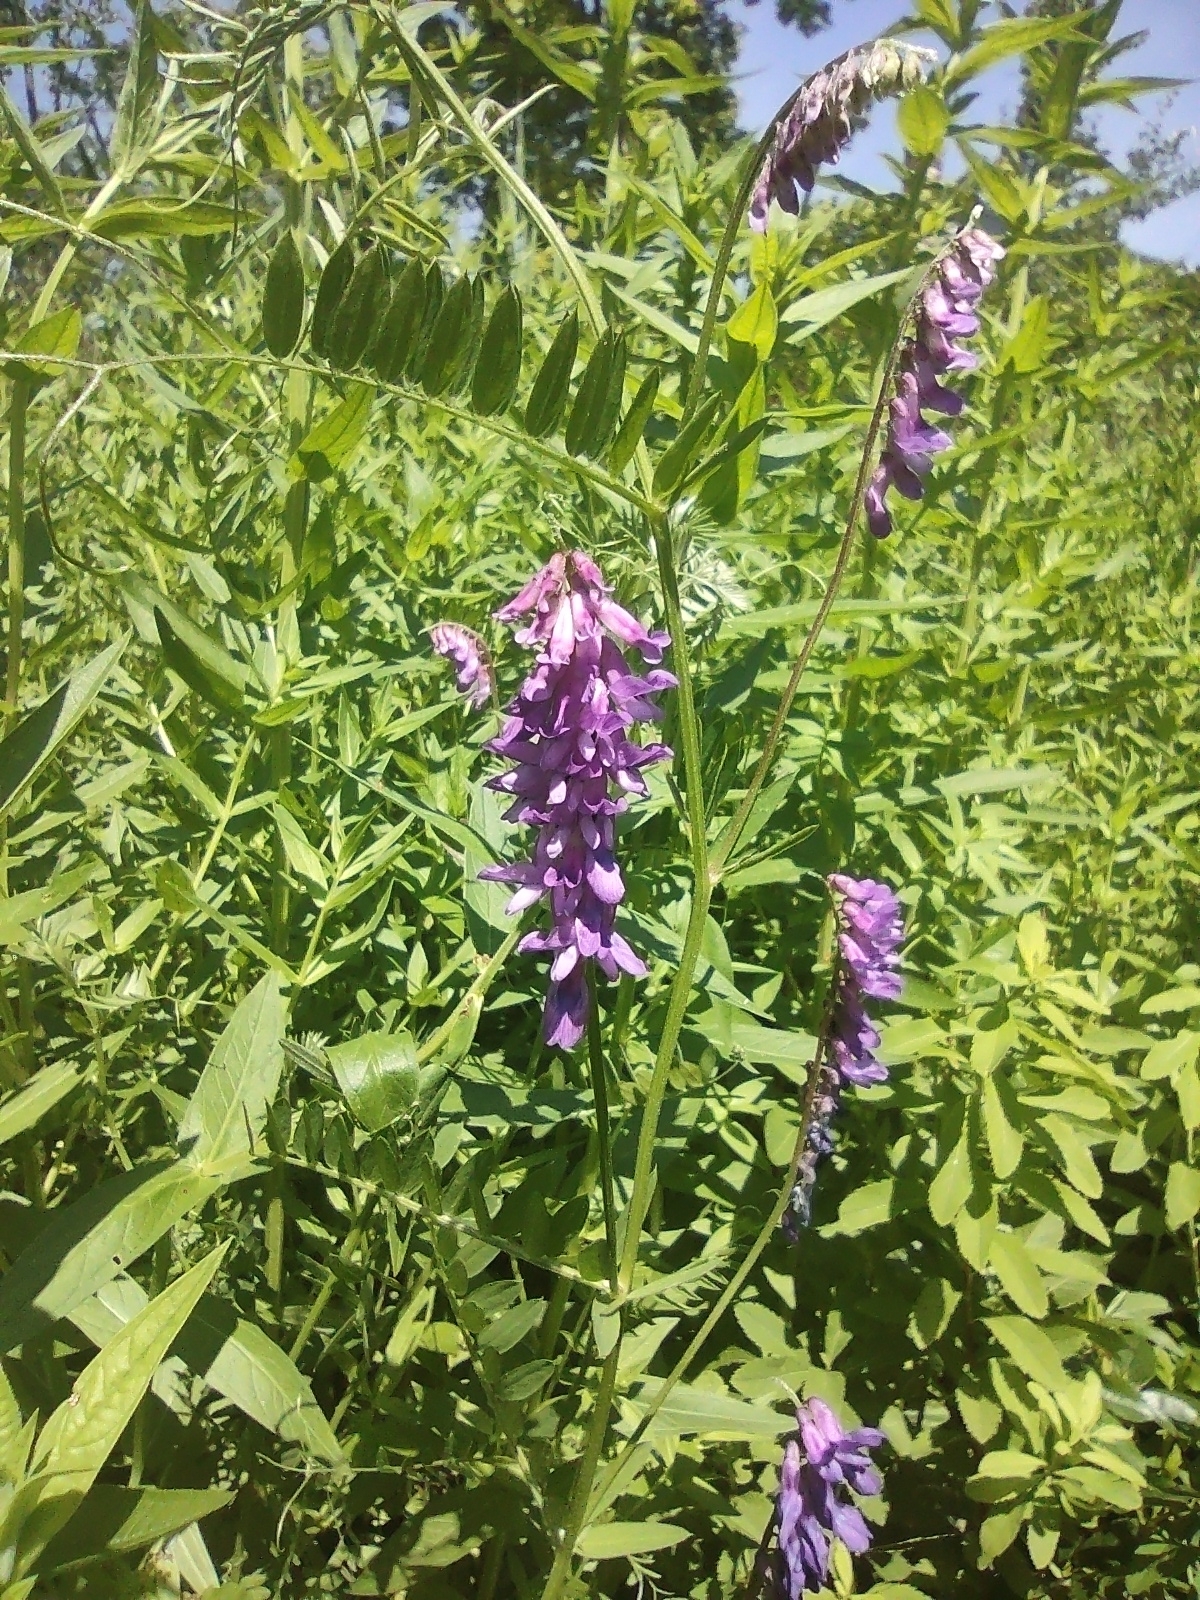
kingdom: Plantae
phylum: Tracheophyta
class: Magnoliopsida
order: Fabales
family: Fabaceae
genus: Vicia
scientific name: Vicia cracca
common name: Bird vetch
